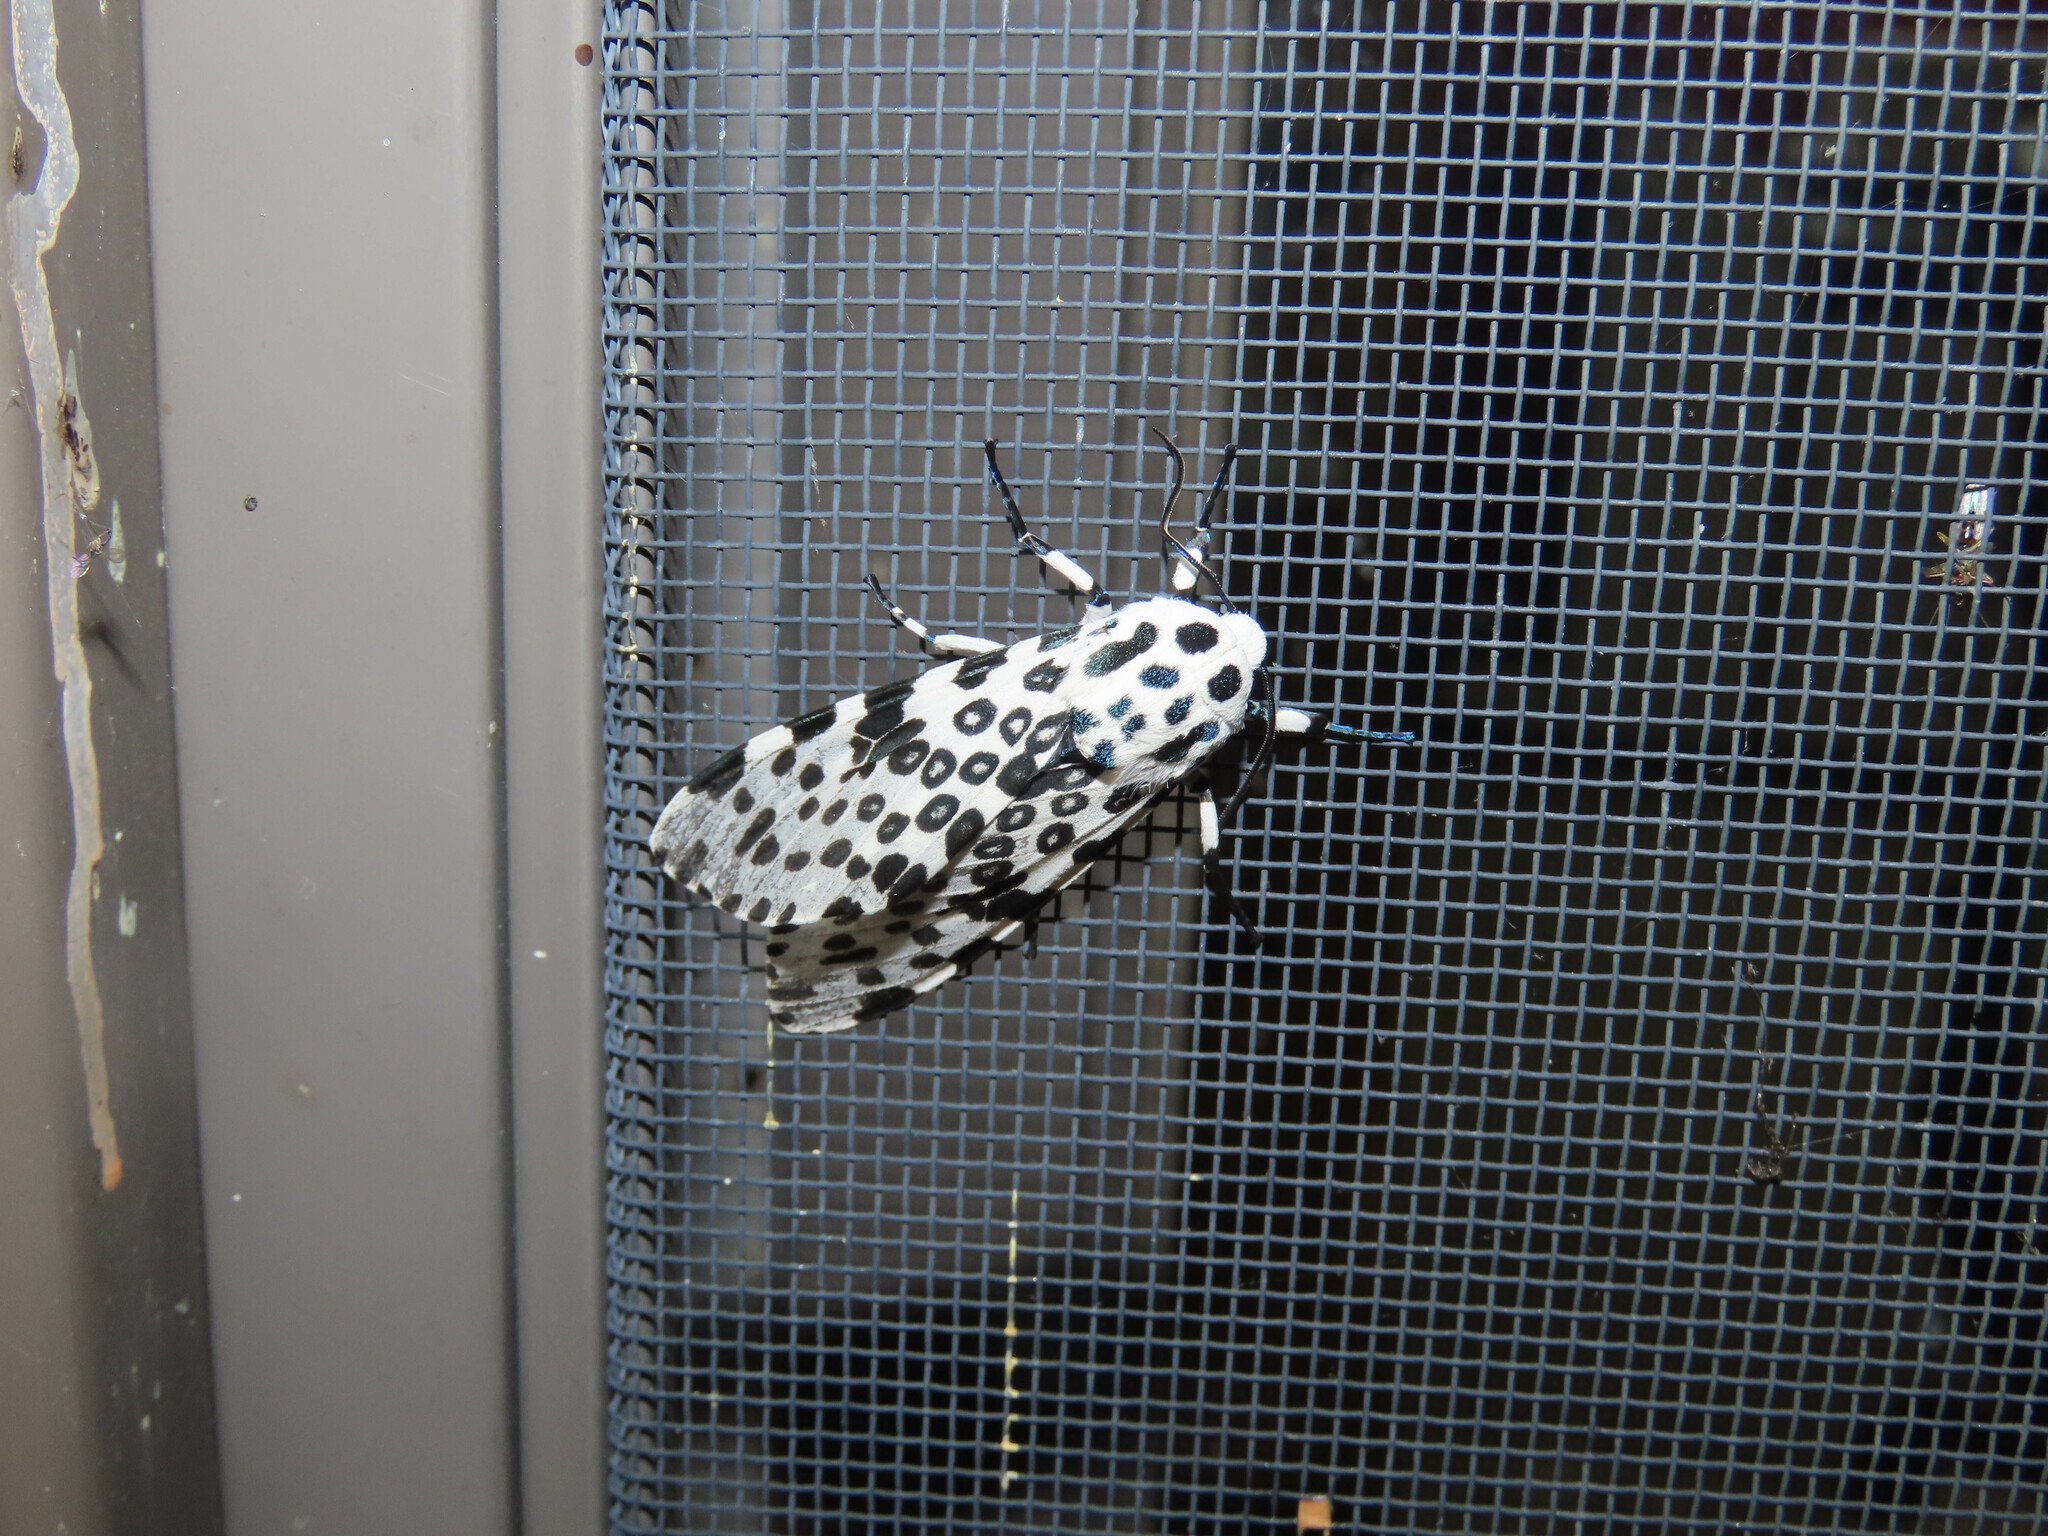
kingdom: Animalia
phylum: Arthropoda
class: Insecta
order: Lepidoptera
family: Erebidae
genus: Hypercompe
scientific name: Hypercompe scribonia
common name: Giant leopard moth
